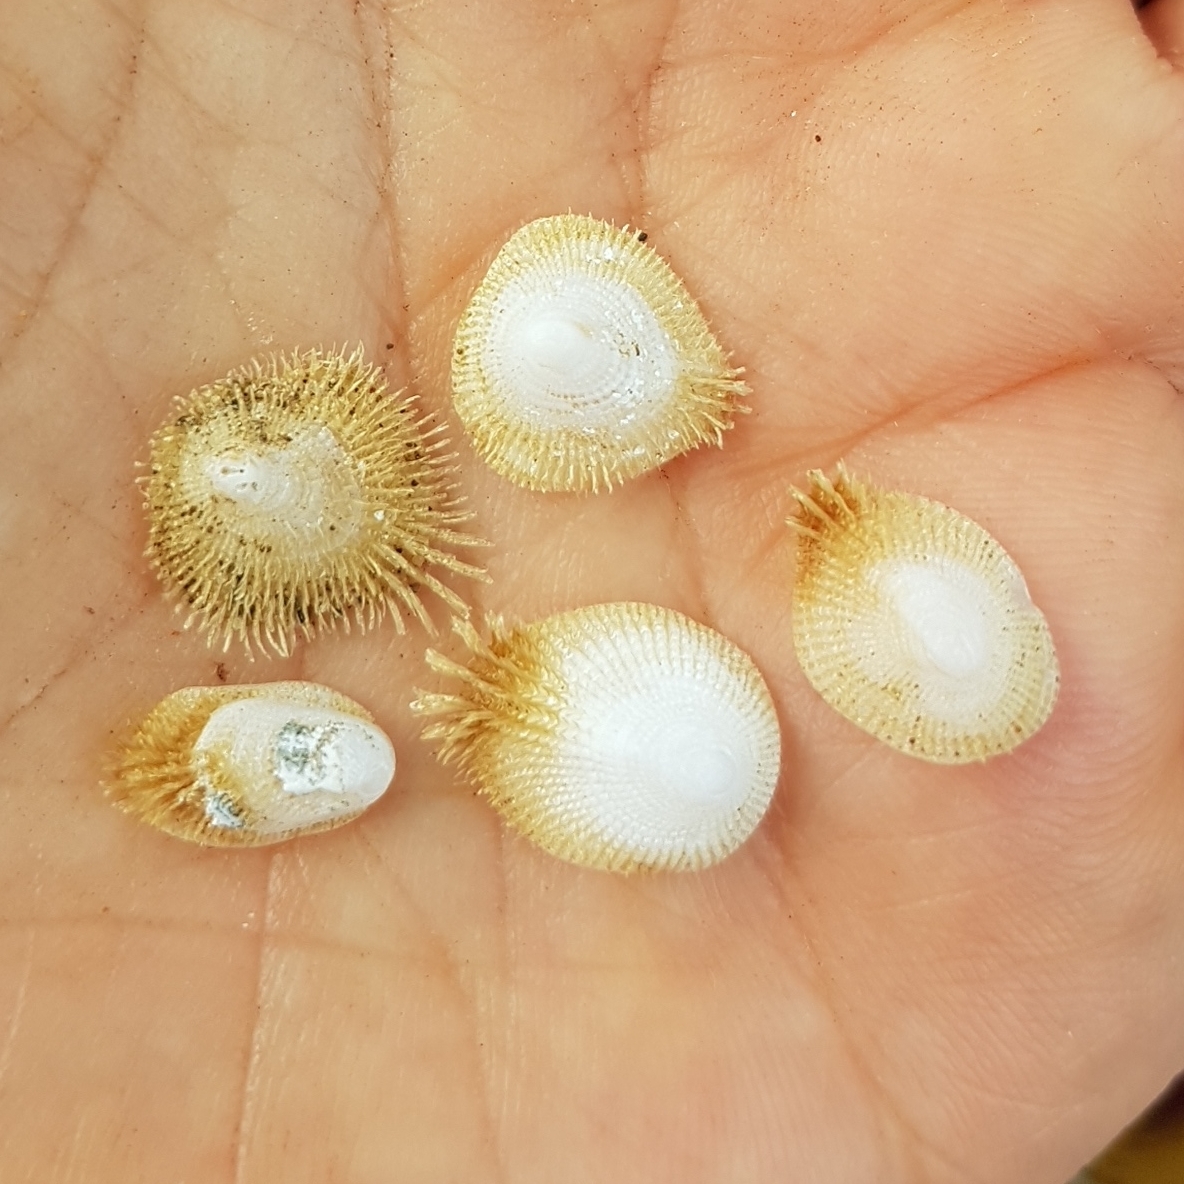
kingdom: Animalia
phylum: Mollusca
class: Gastropoda
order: Littorinimorpha
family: Hipponicidae
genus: Pilosabia
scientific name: Pilosabia trigona
